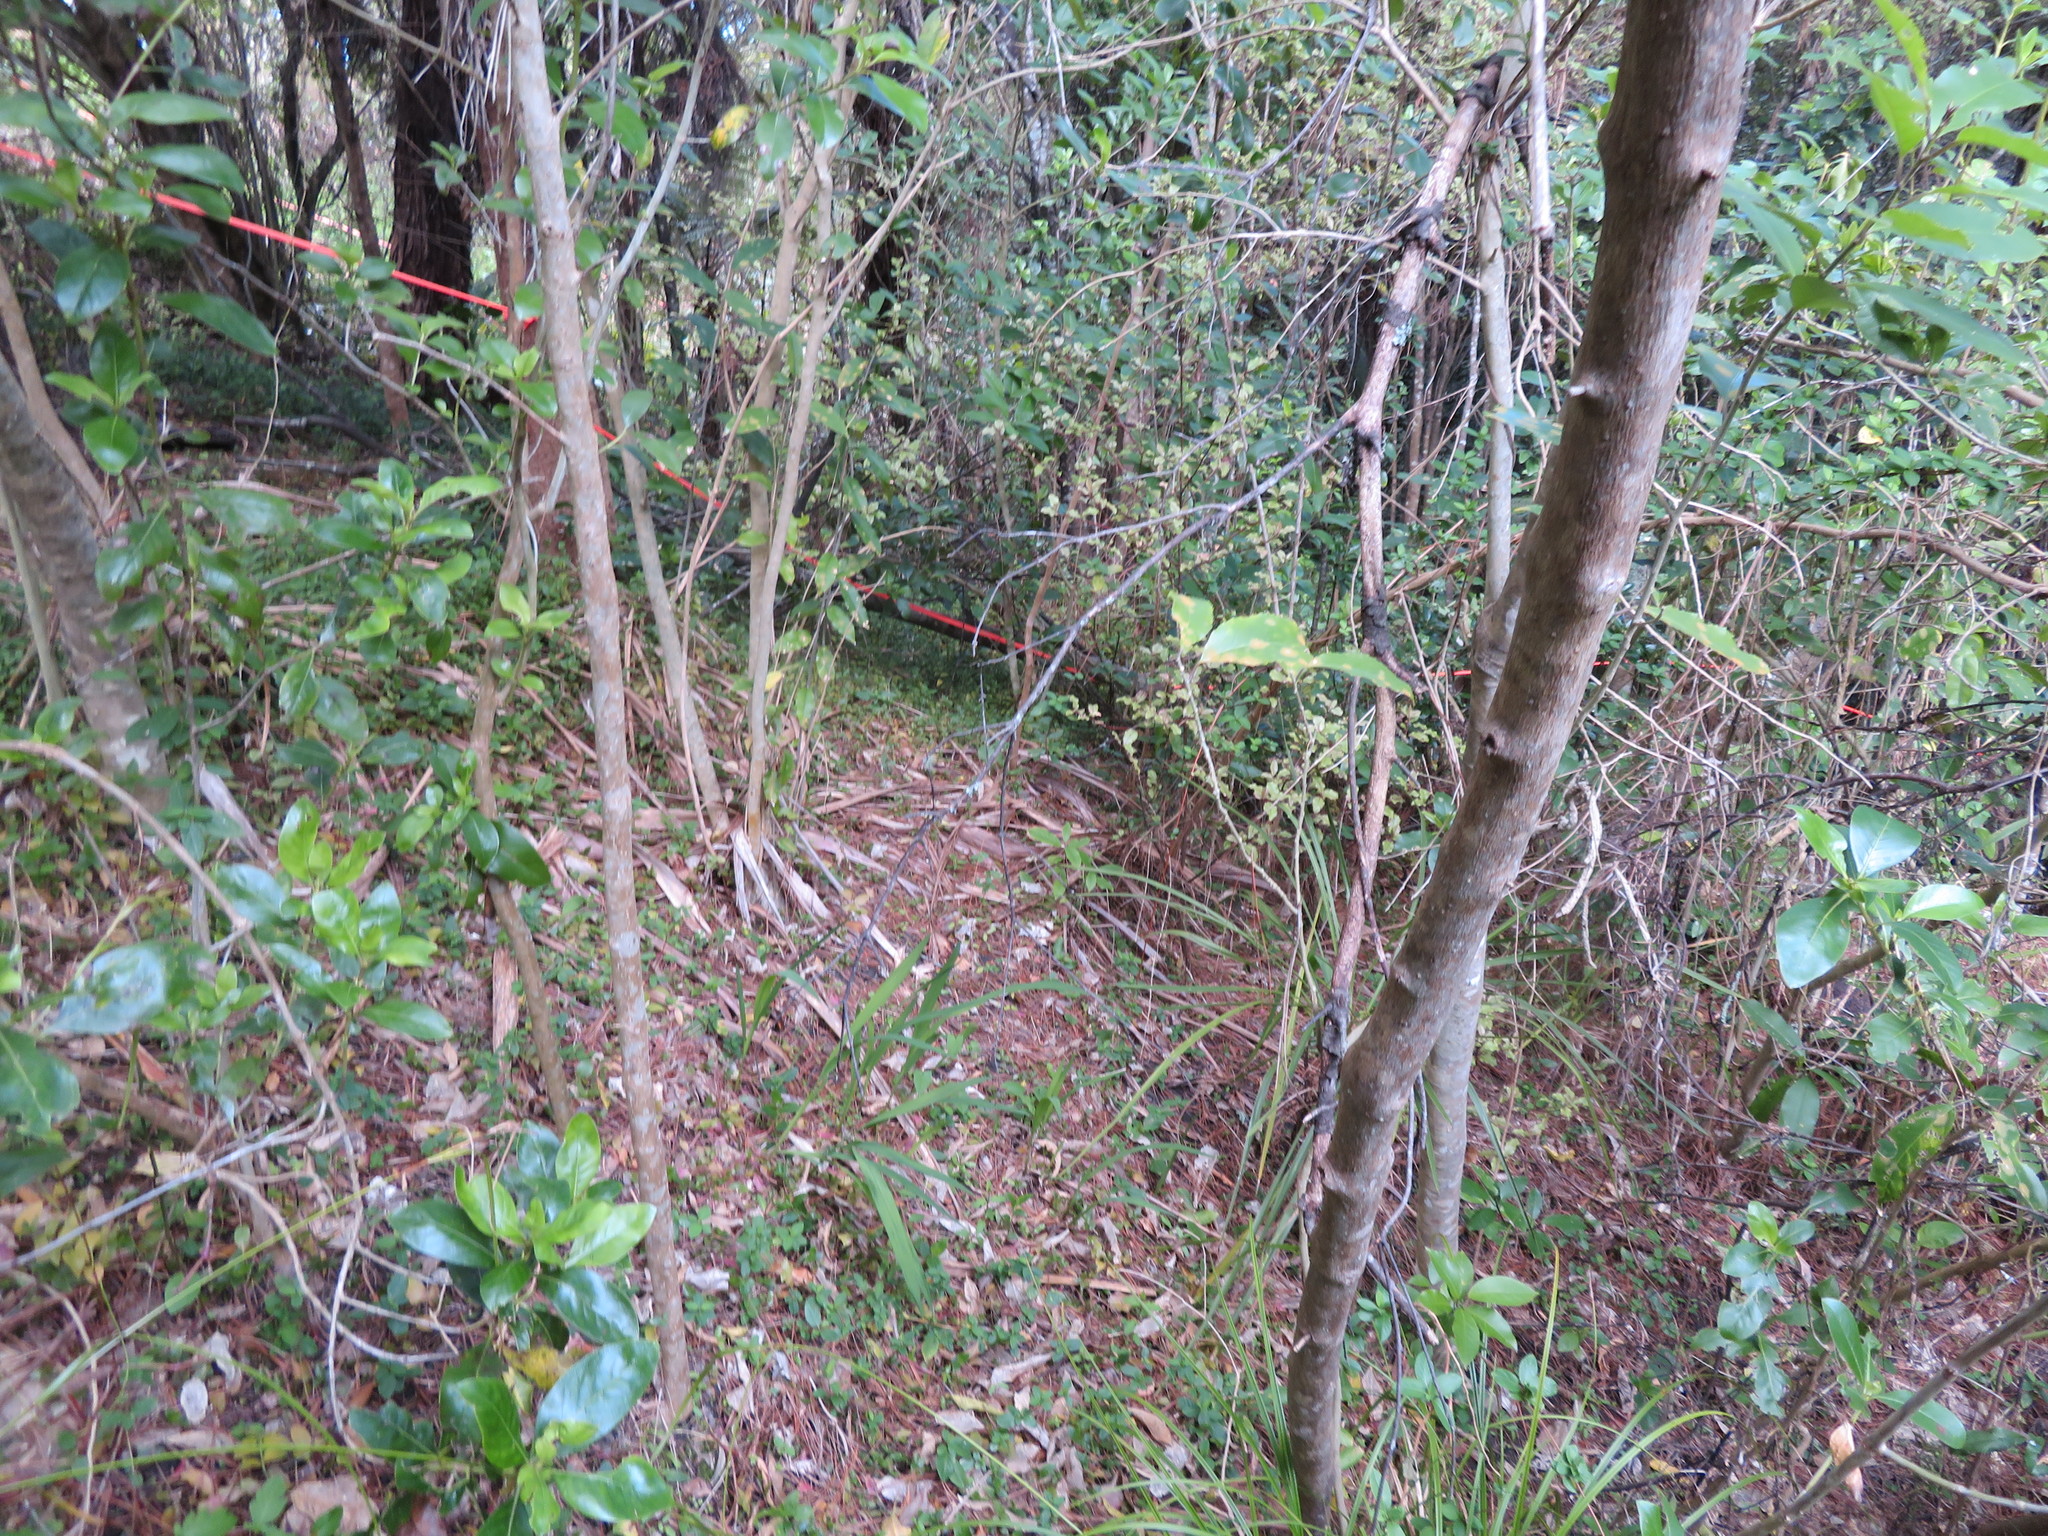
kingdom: Plantae
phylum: Tracheophyta
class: Magnoliopsida
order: Malpighiales
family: Violaceae
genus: Melicytus
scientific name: Melicytus ramiflorus
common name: Mahoe
